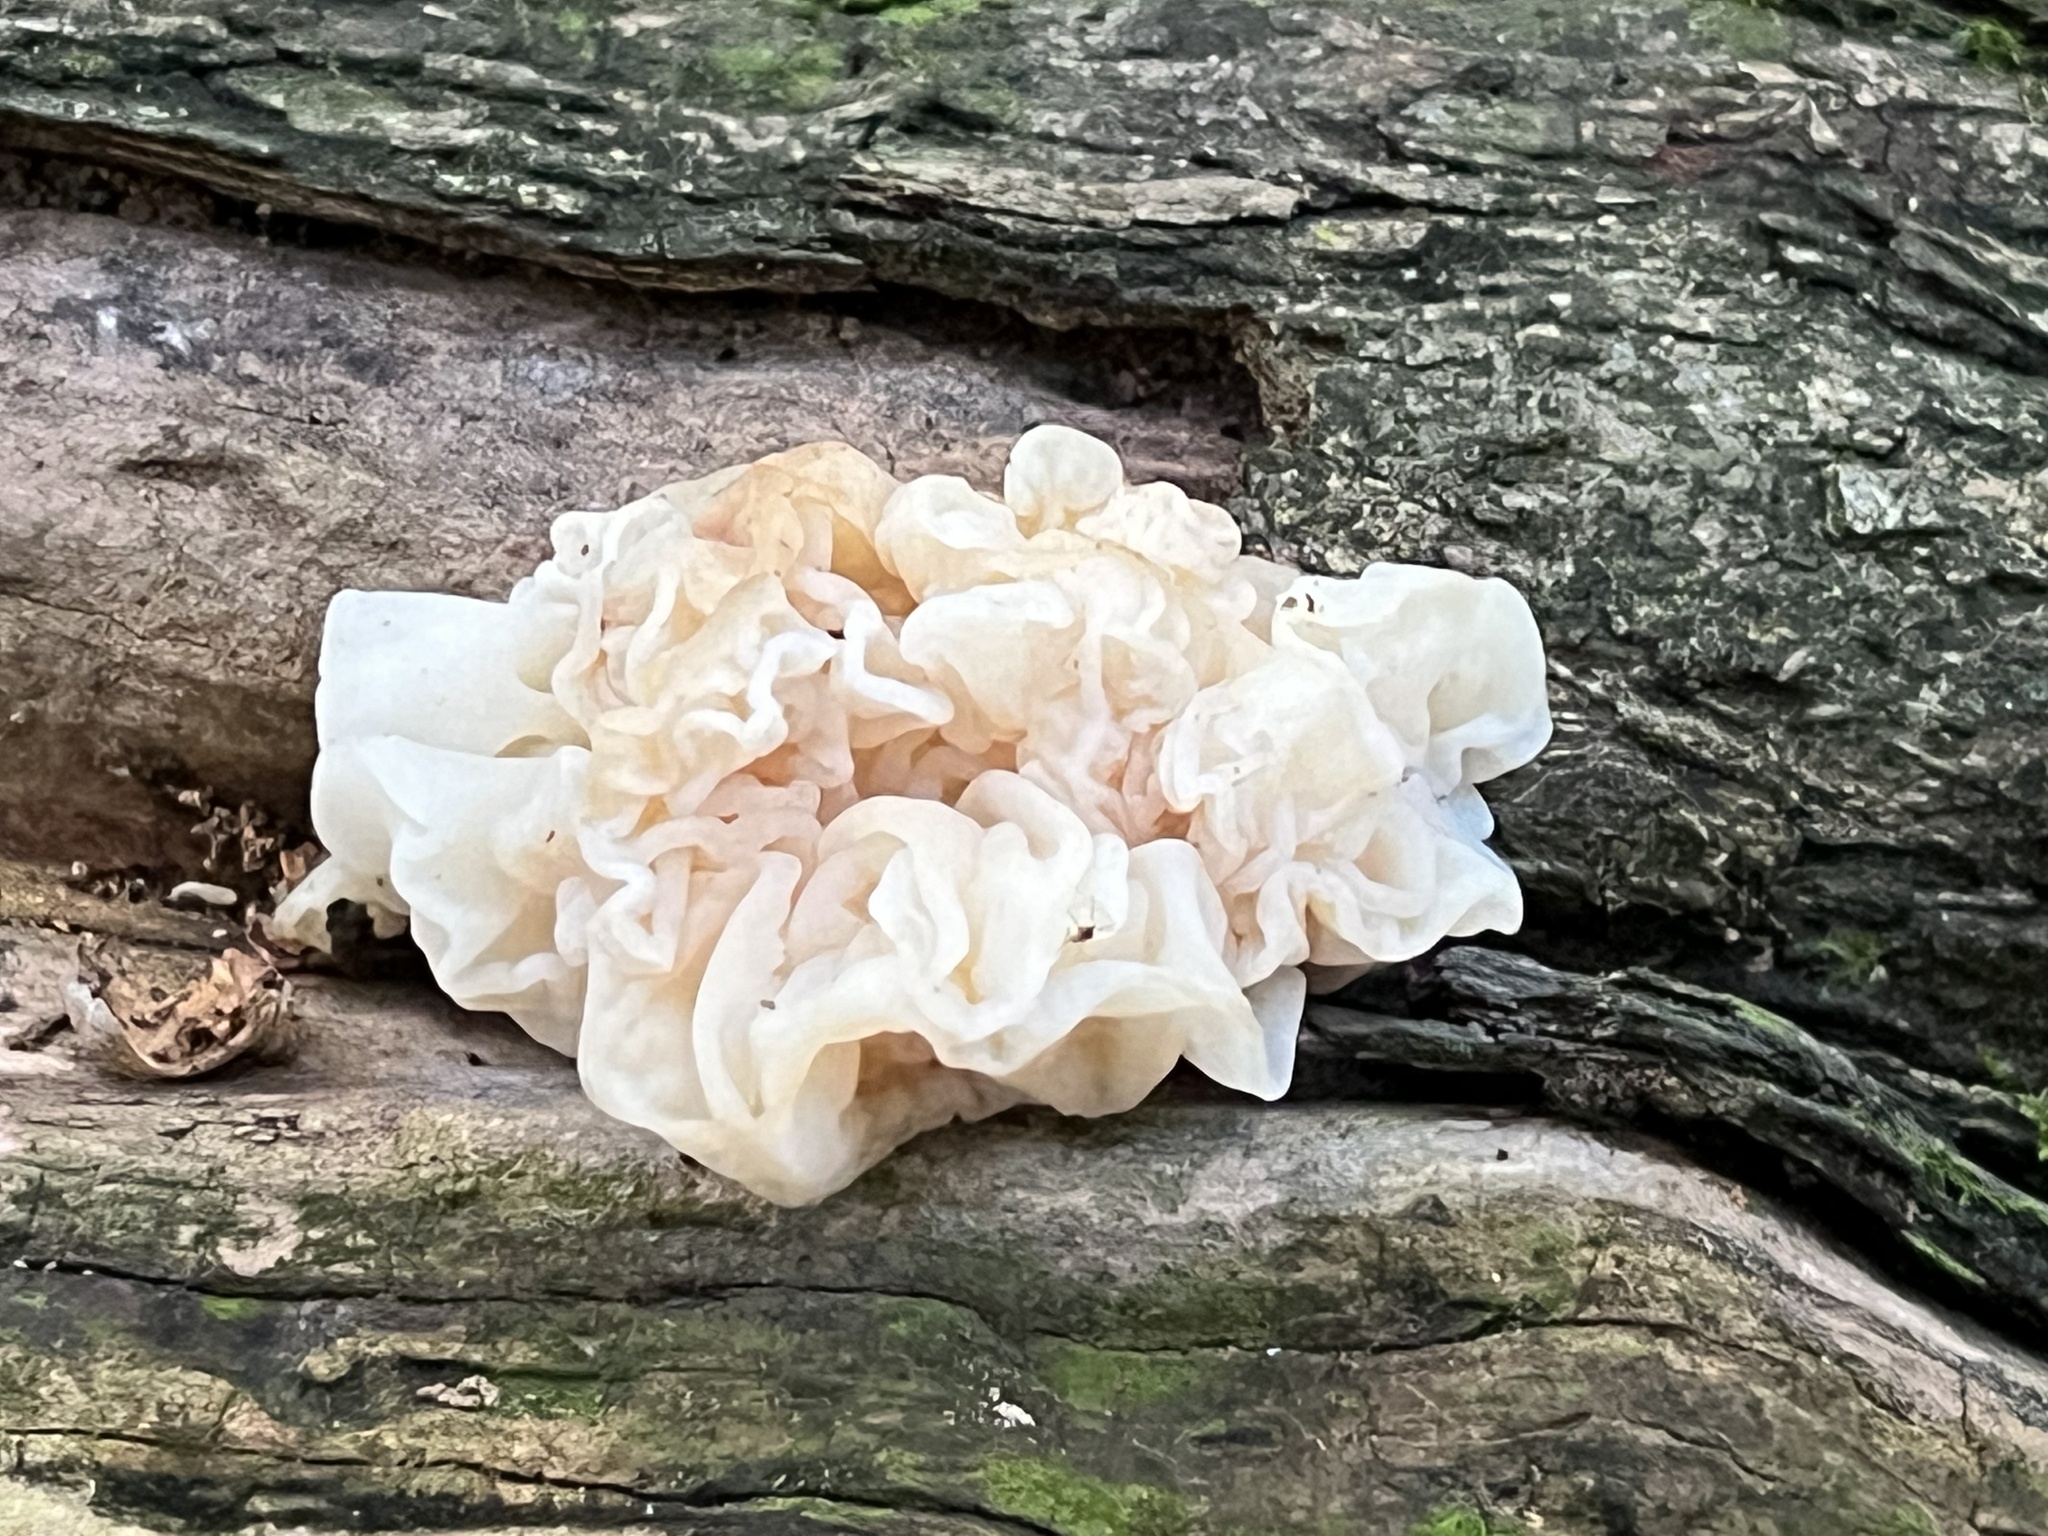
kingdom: Fungi
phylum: Basidiomycota
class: Agaricomycetes
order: Auriculariales
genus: Ductifera
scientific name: Ductifera pululahuana
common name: White jelly fungus
